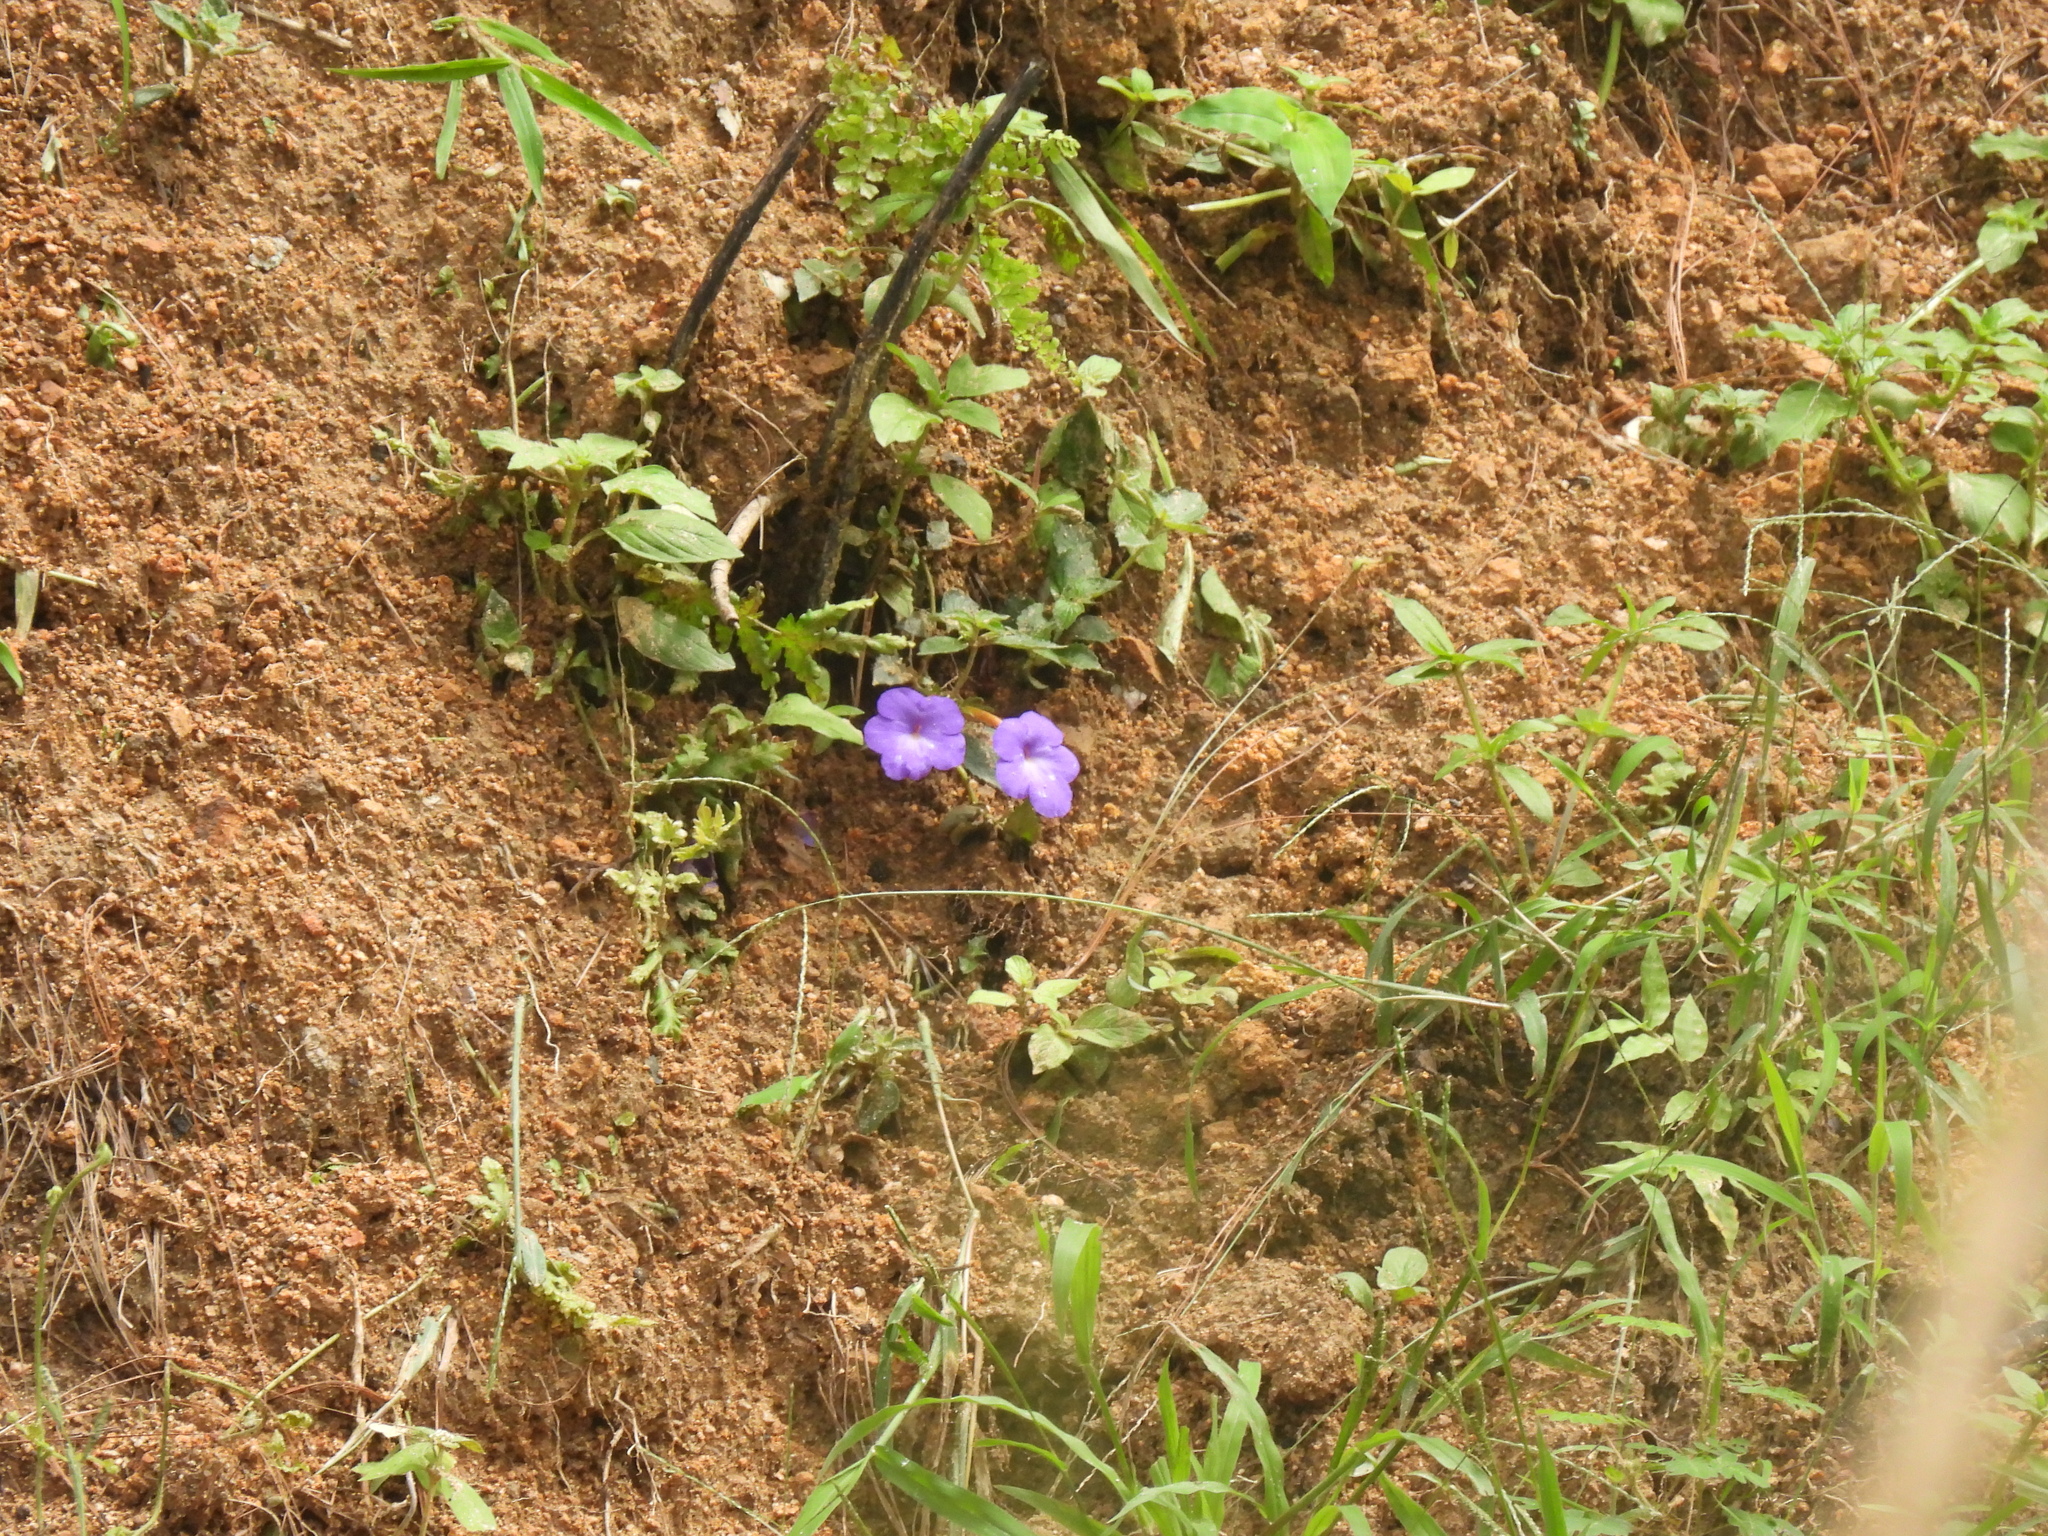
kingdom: Plantae
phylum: Tracheophyta
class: Magnoliopsida
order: Lamiales
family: Gesneriaceae
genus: Achimenes
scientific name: Achimenes longiflora
